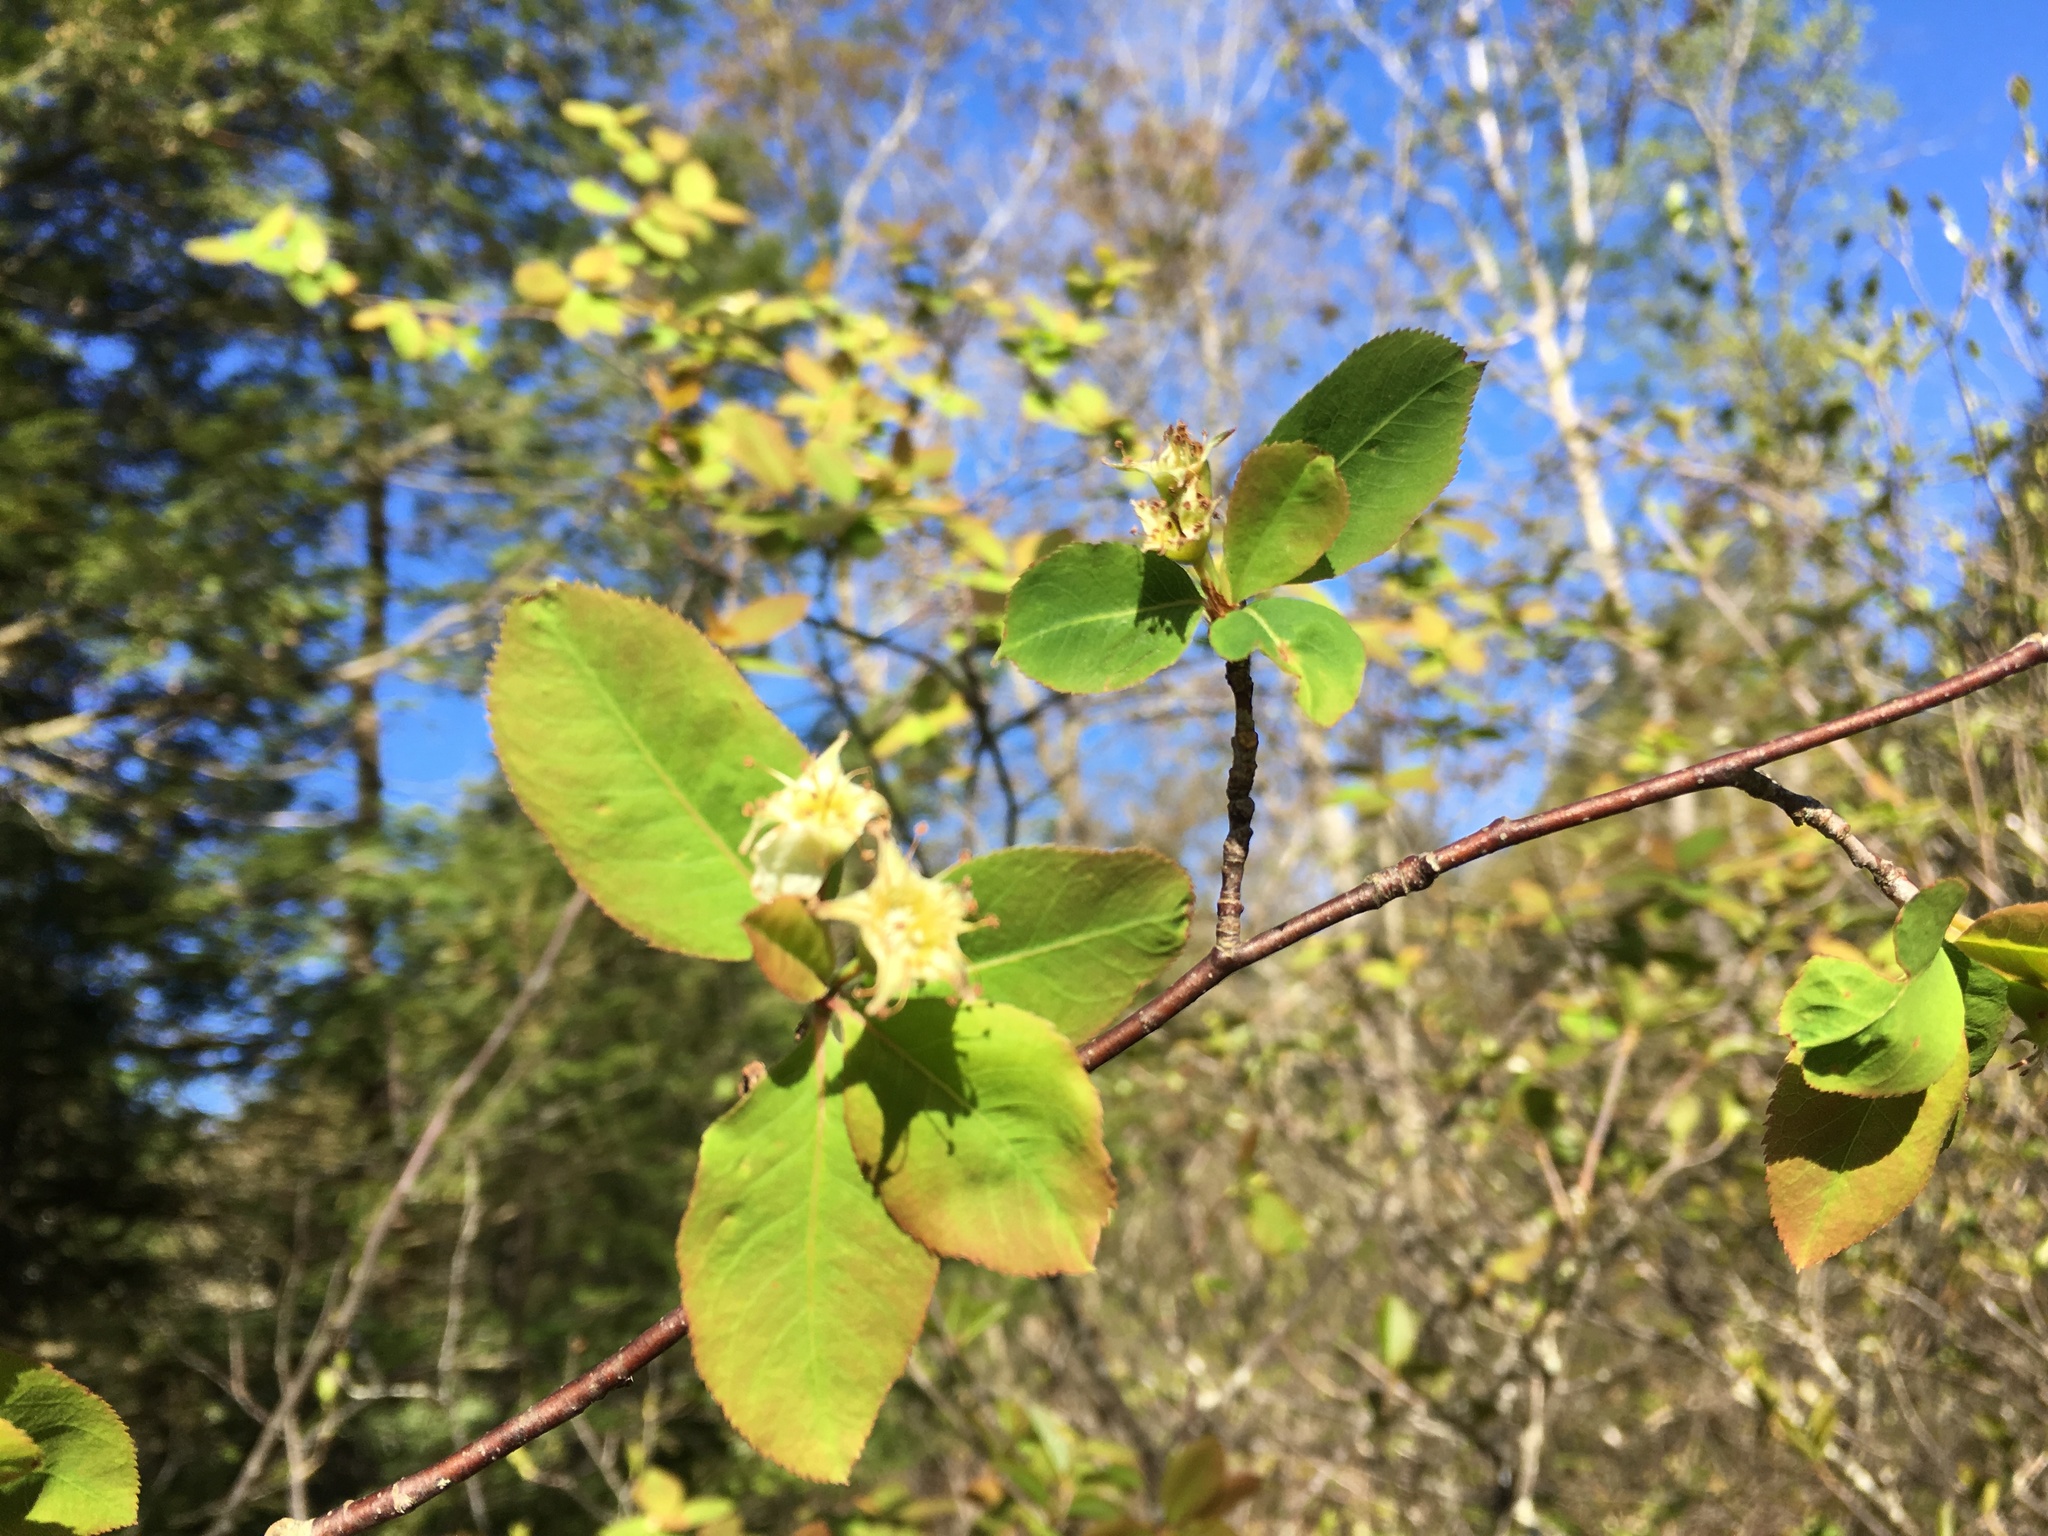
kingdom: Plantae
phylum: Tracheophyta
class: Magnoliopsida
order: Rosales
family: Rosaceae
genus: Amelanchier
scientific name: Amelanchier bartramiana
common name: Mountain serviceberry
